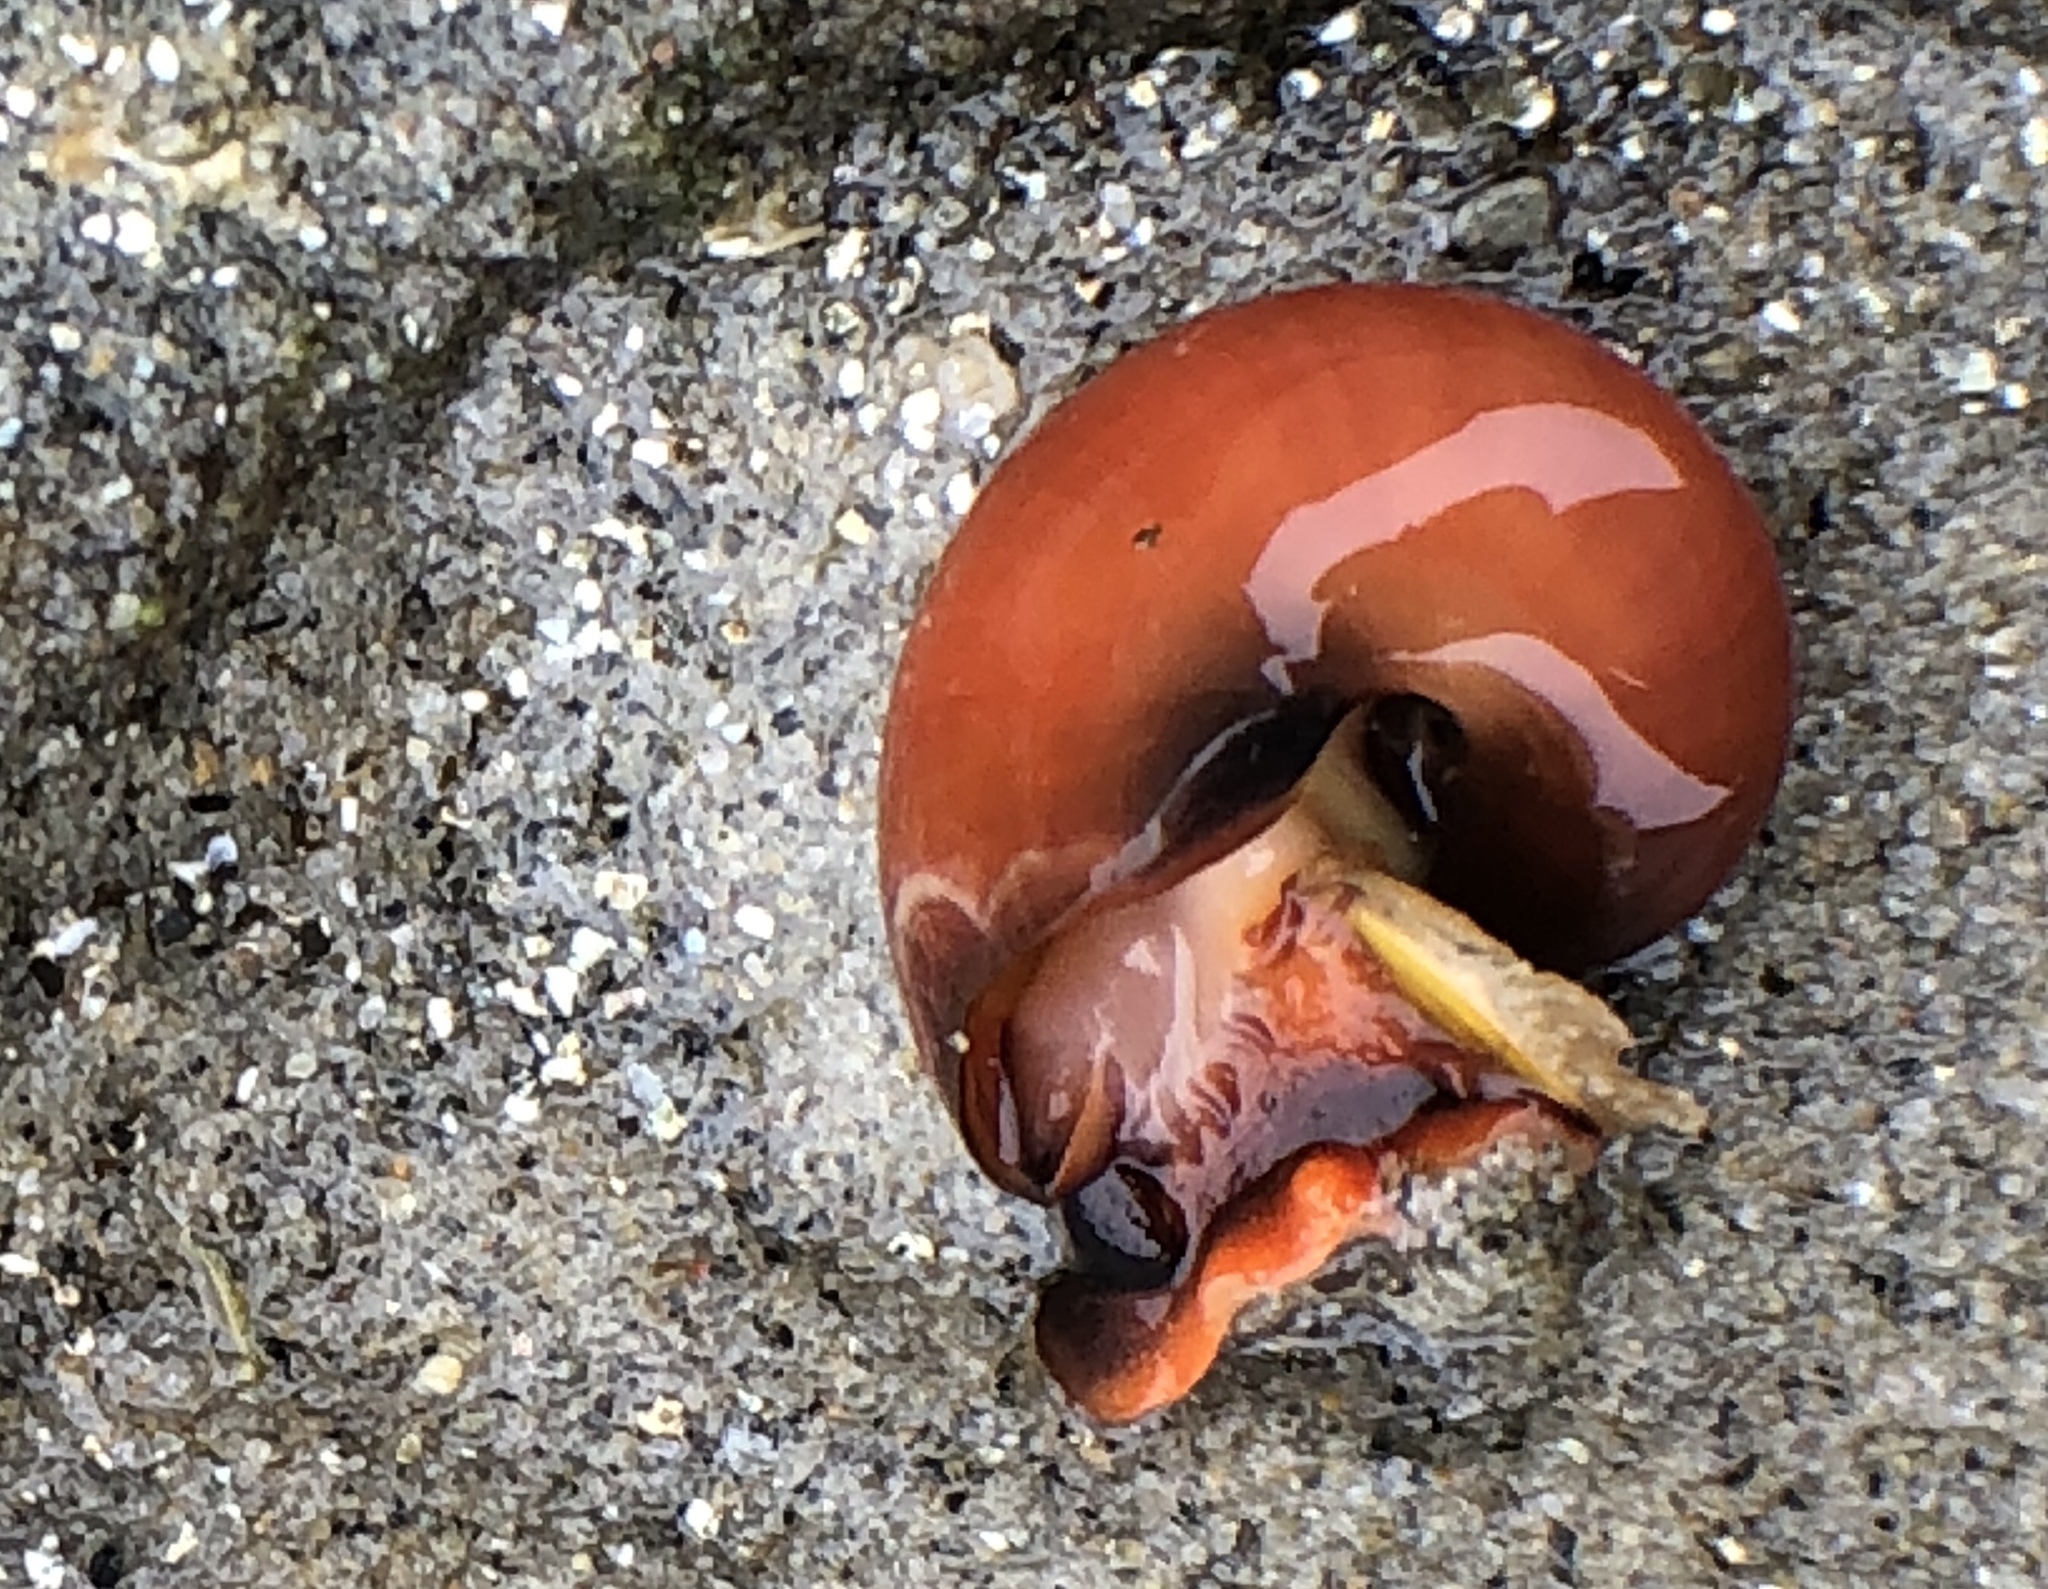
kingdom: Animalia
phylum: Mollusca
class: Gastropoda
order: Trochida
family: Tegulidae
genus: Norrisia
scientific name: Norrisia norrisii
